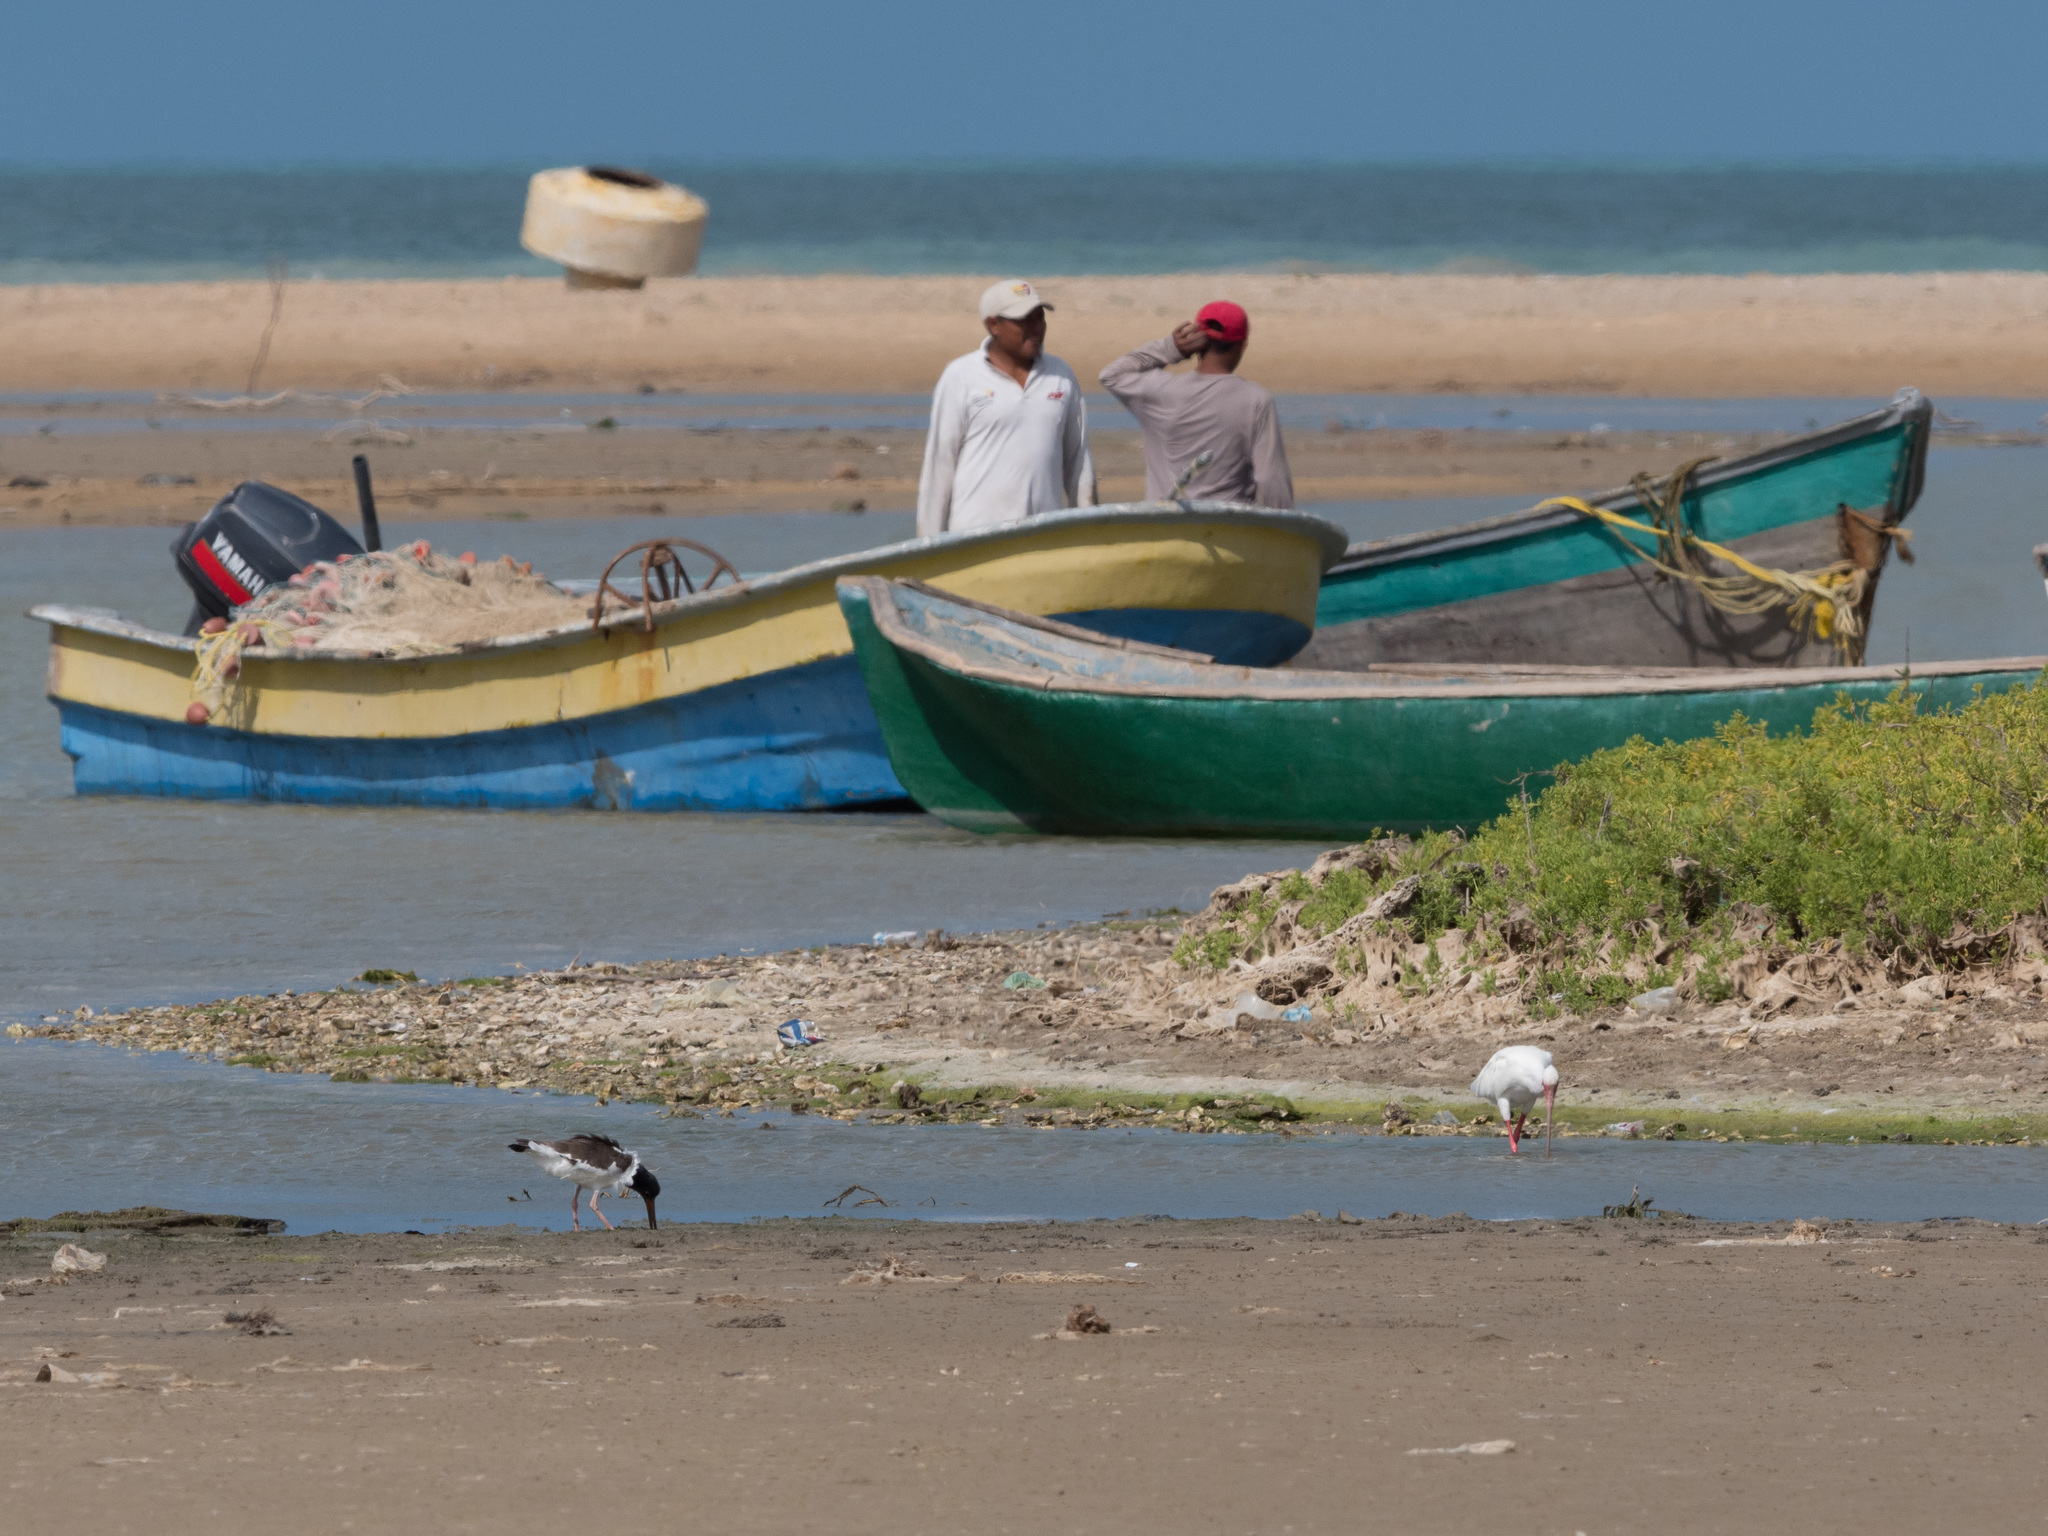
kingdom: Animalia
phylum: Chordata
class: Aves
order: Pelecaniformes
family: Threskiornithidae
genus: Eudocimus
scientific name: Eudocimus albus
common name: White ibis
